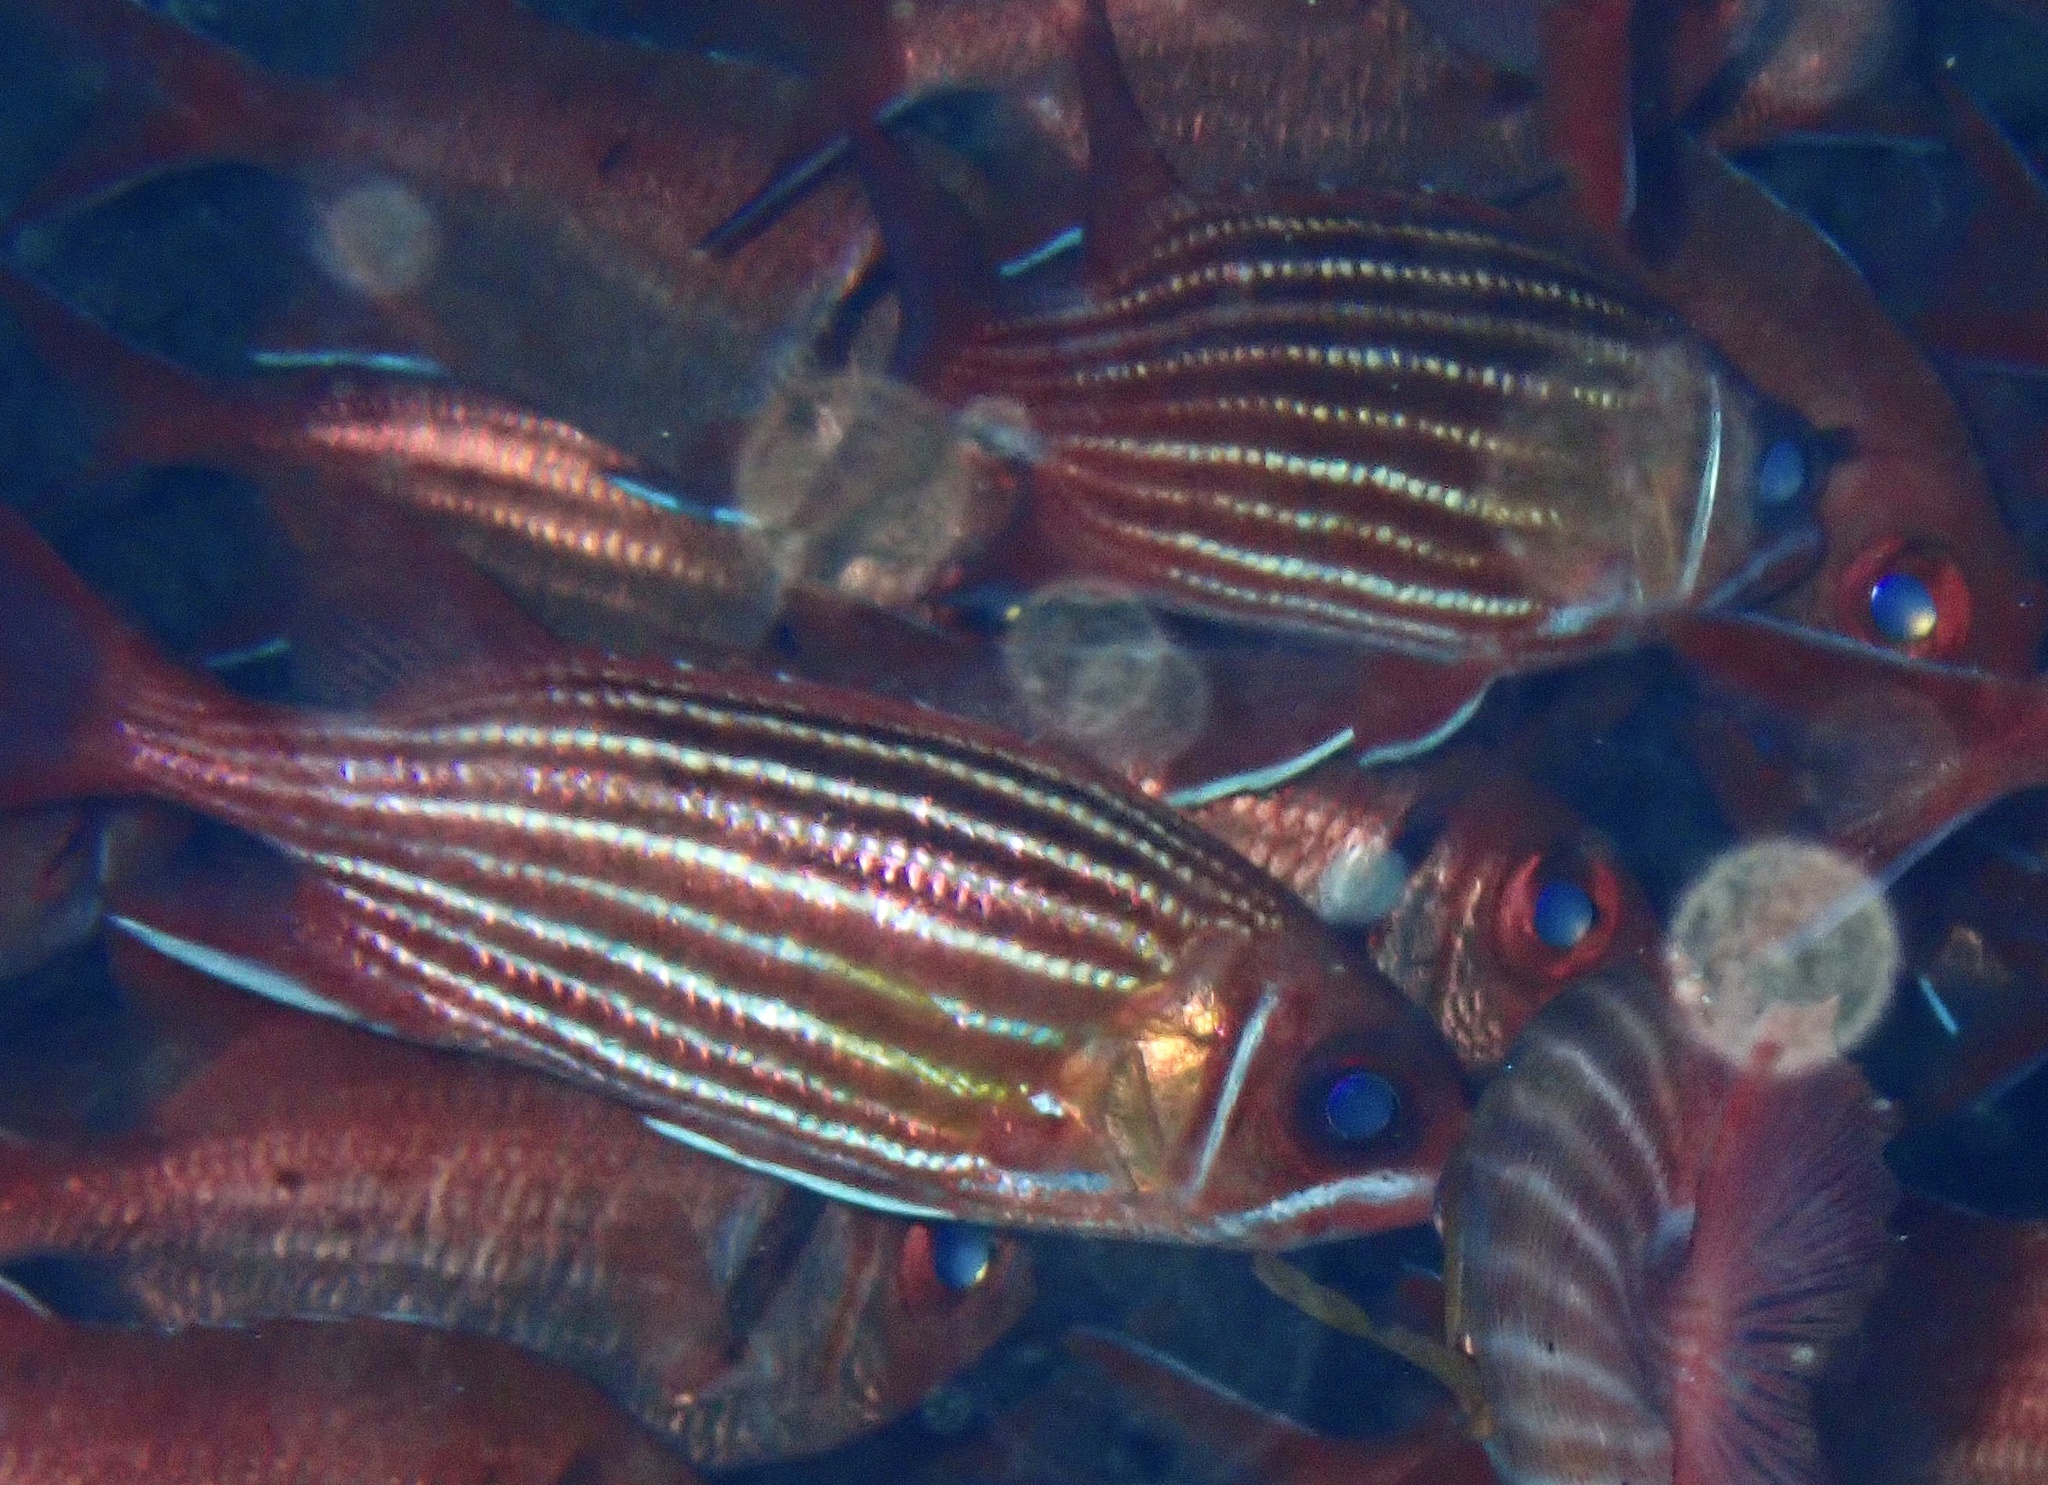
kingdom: Animalia
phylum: Chordata
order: Beryciformes
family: Holocentridae
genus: Sargocentron
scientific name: Sargocentron hastatum
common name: Red soldierfish
